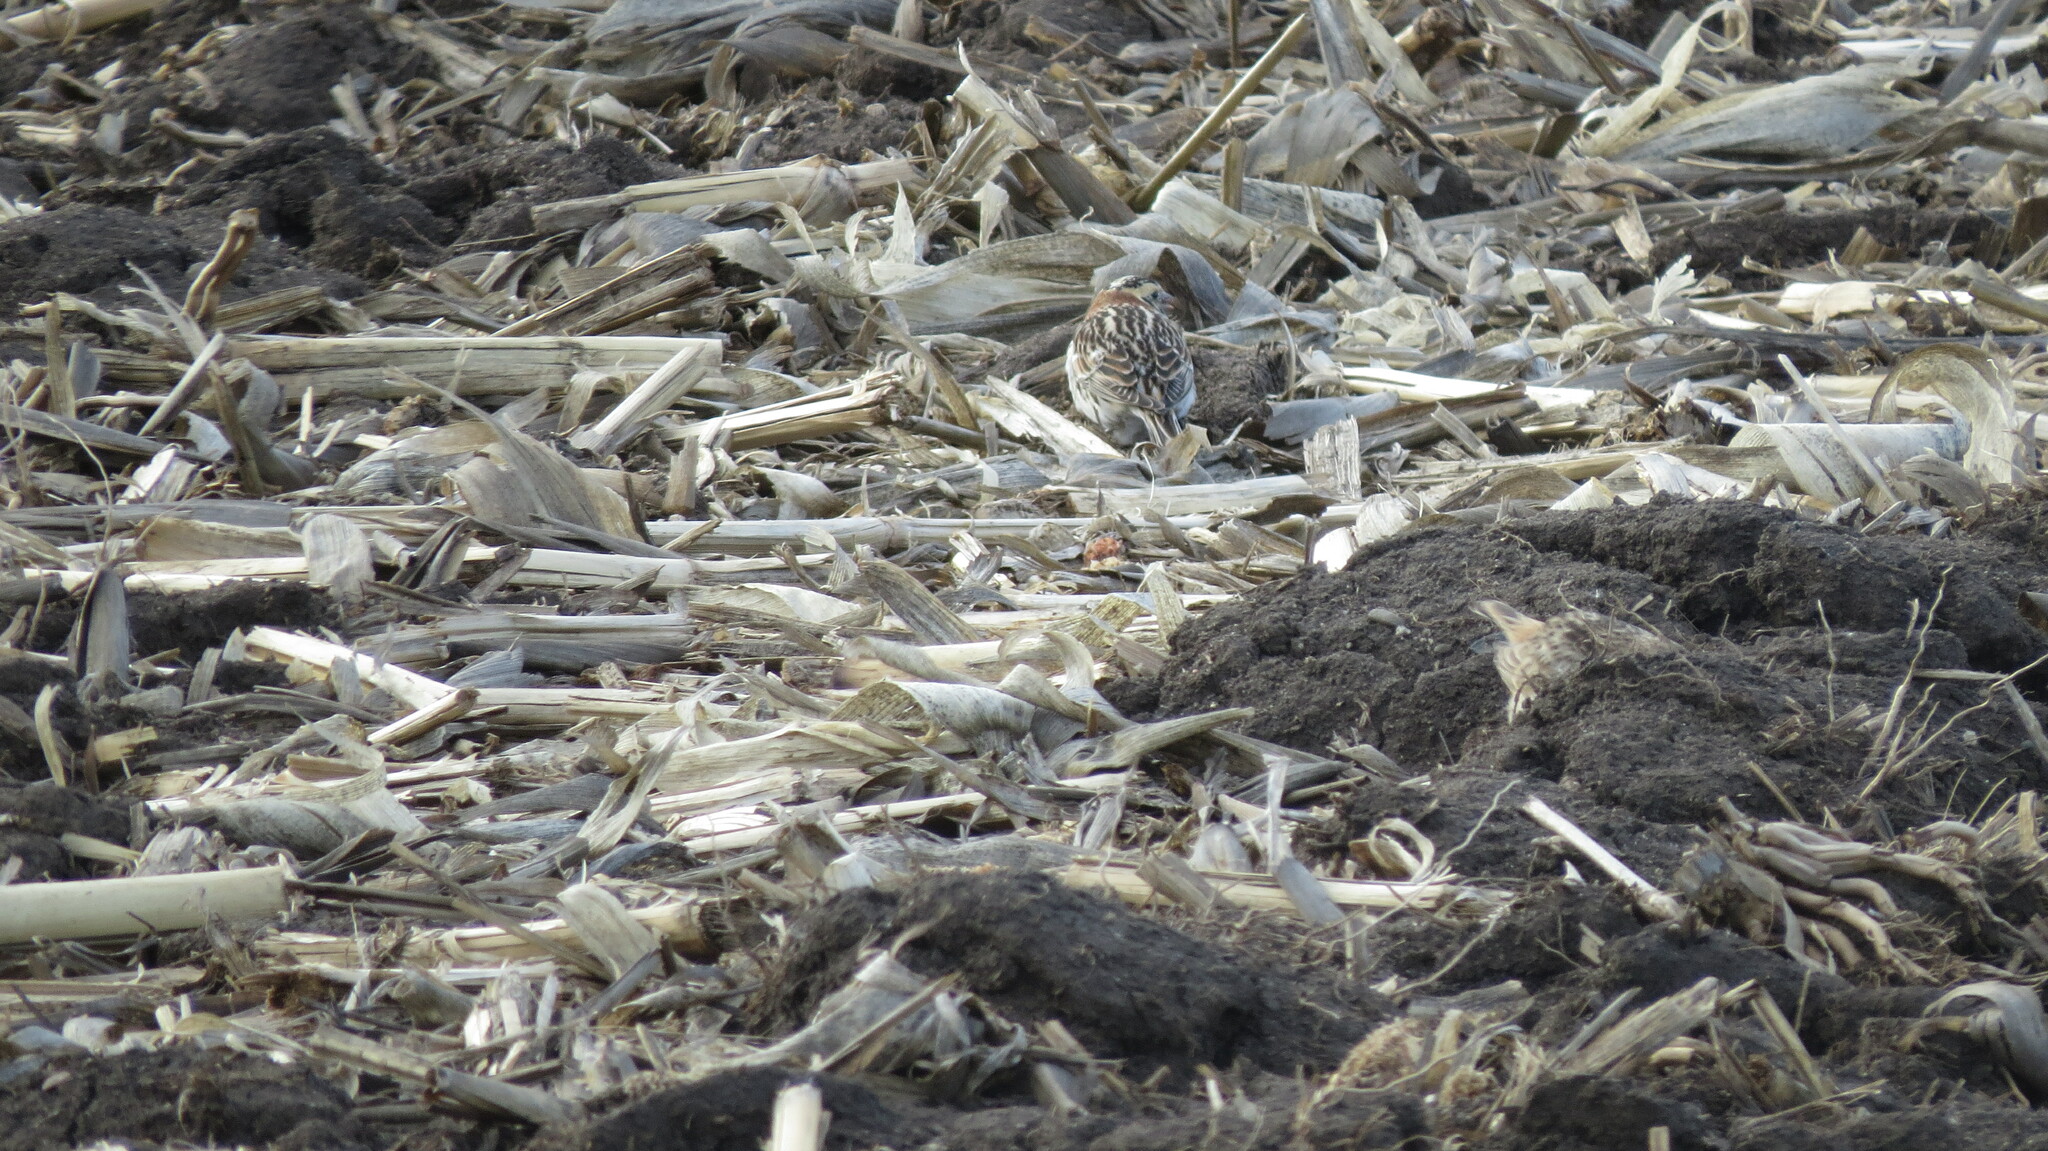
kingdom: Animalia
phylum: Chordata
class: Aves
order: Passeriformes
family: Calcariidae
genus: Calcarius
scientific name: Calcarius lapponicus
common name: Lapland longspur
